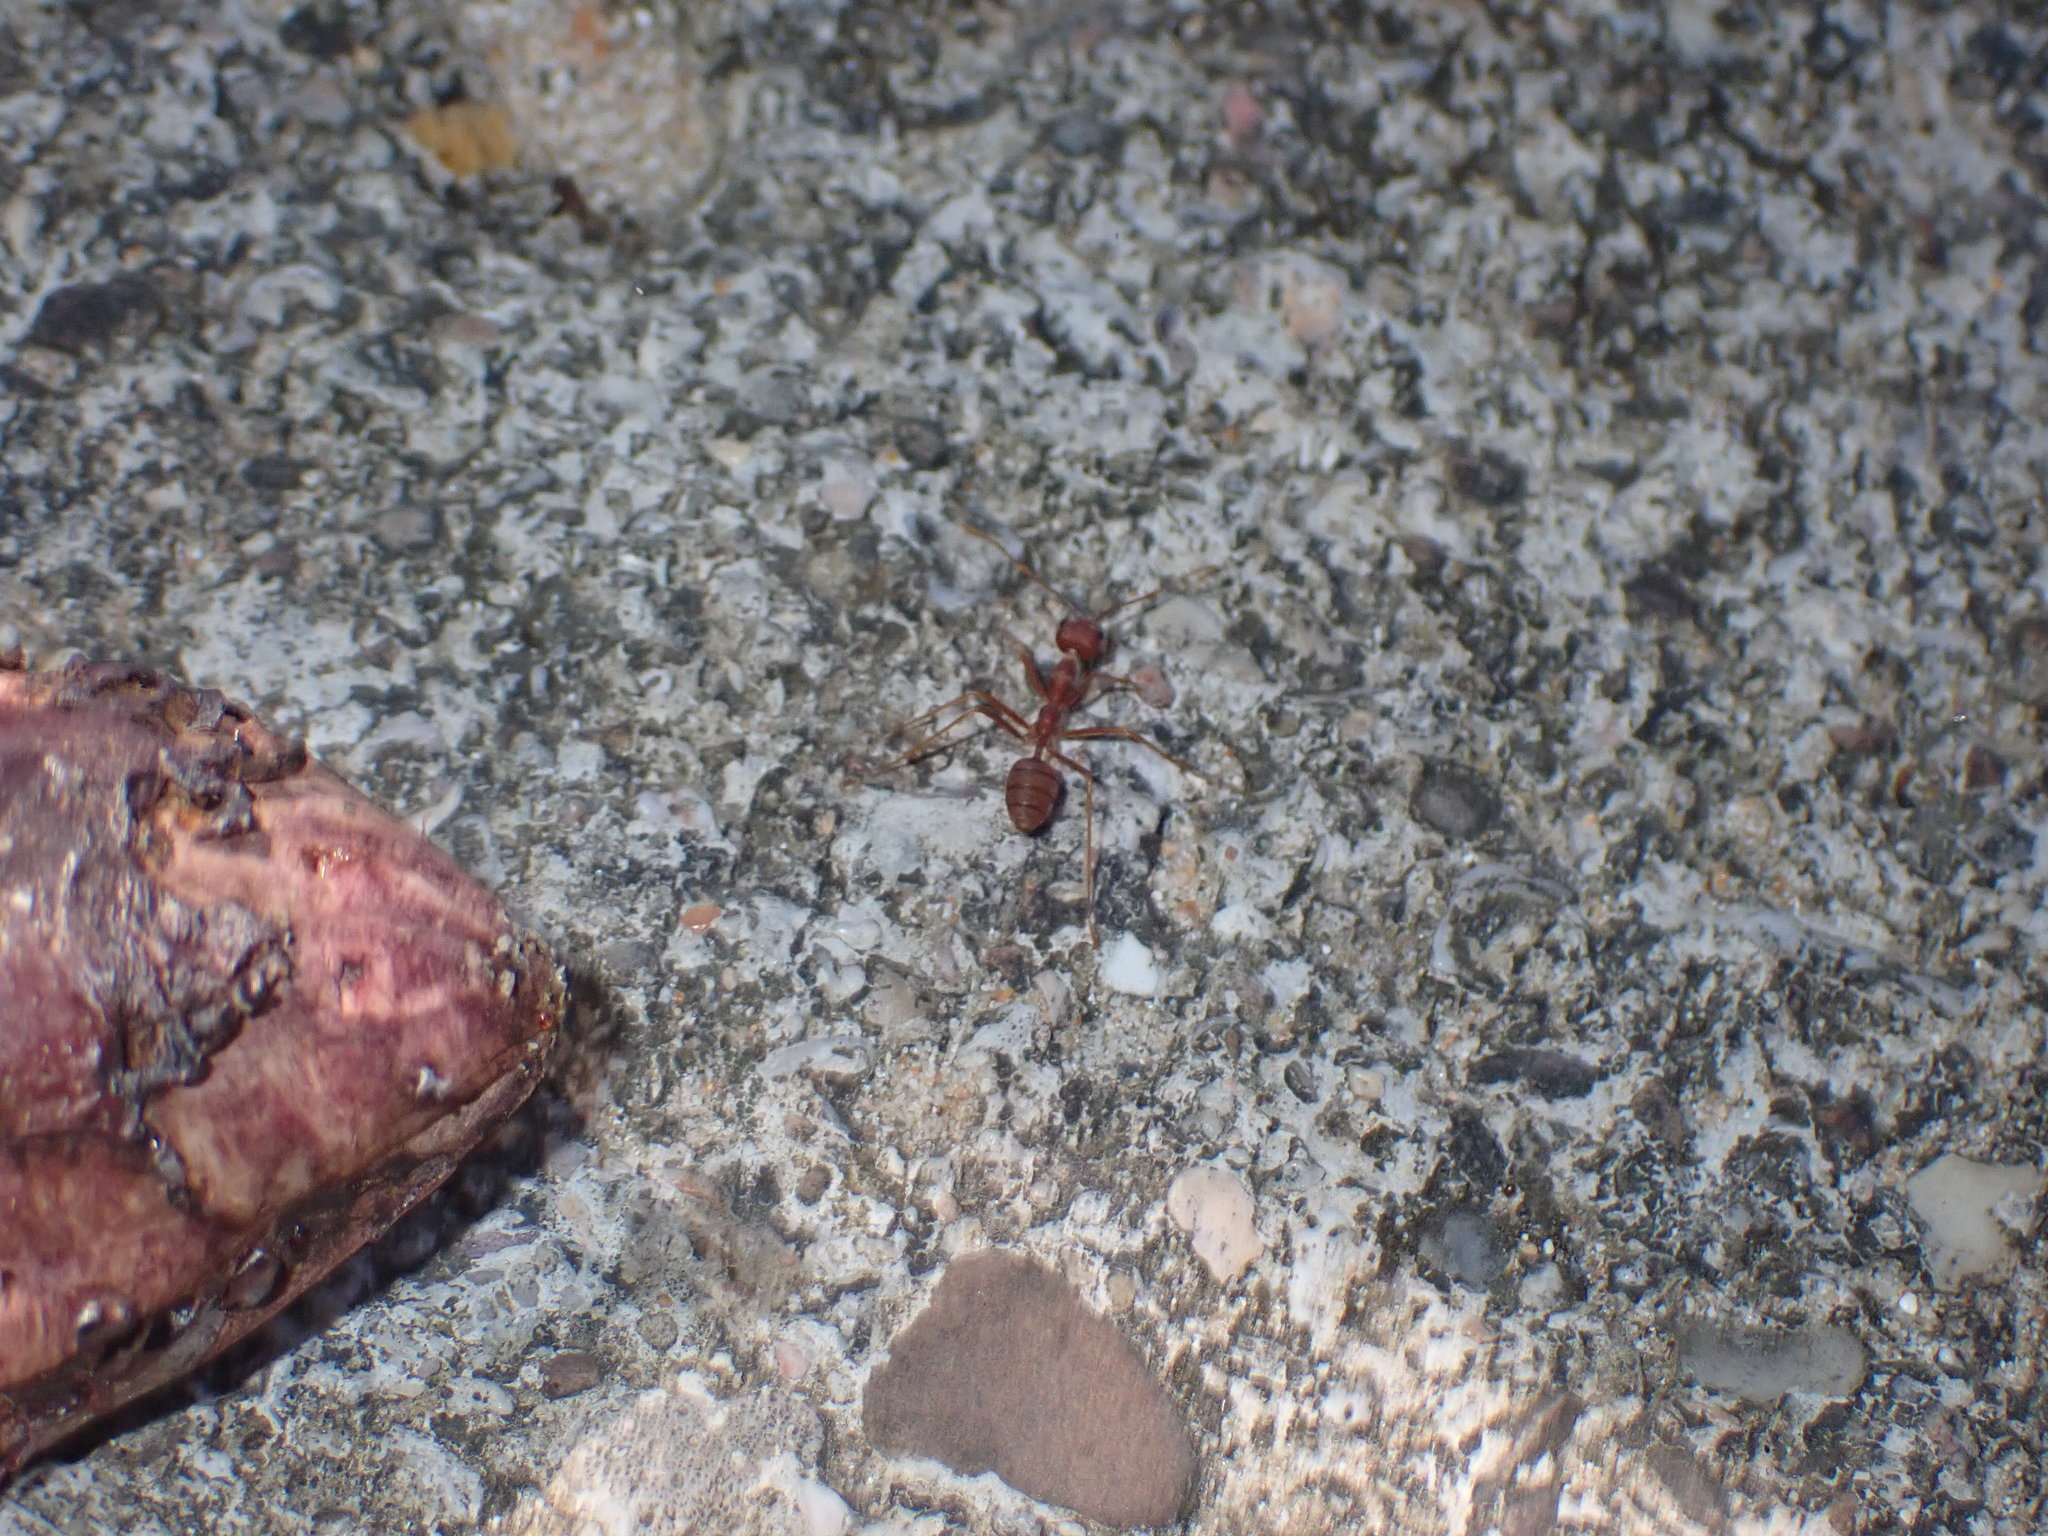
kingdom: Animalia
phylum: Arthropoda
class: Insecta
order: Hymenoptera
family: Formicidae
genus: Oecophylla
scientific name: Oecophylla smaragdina
